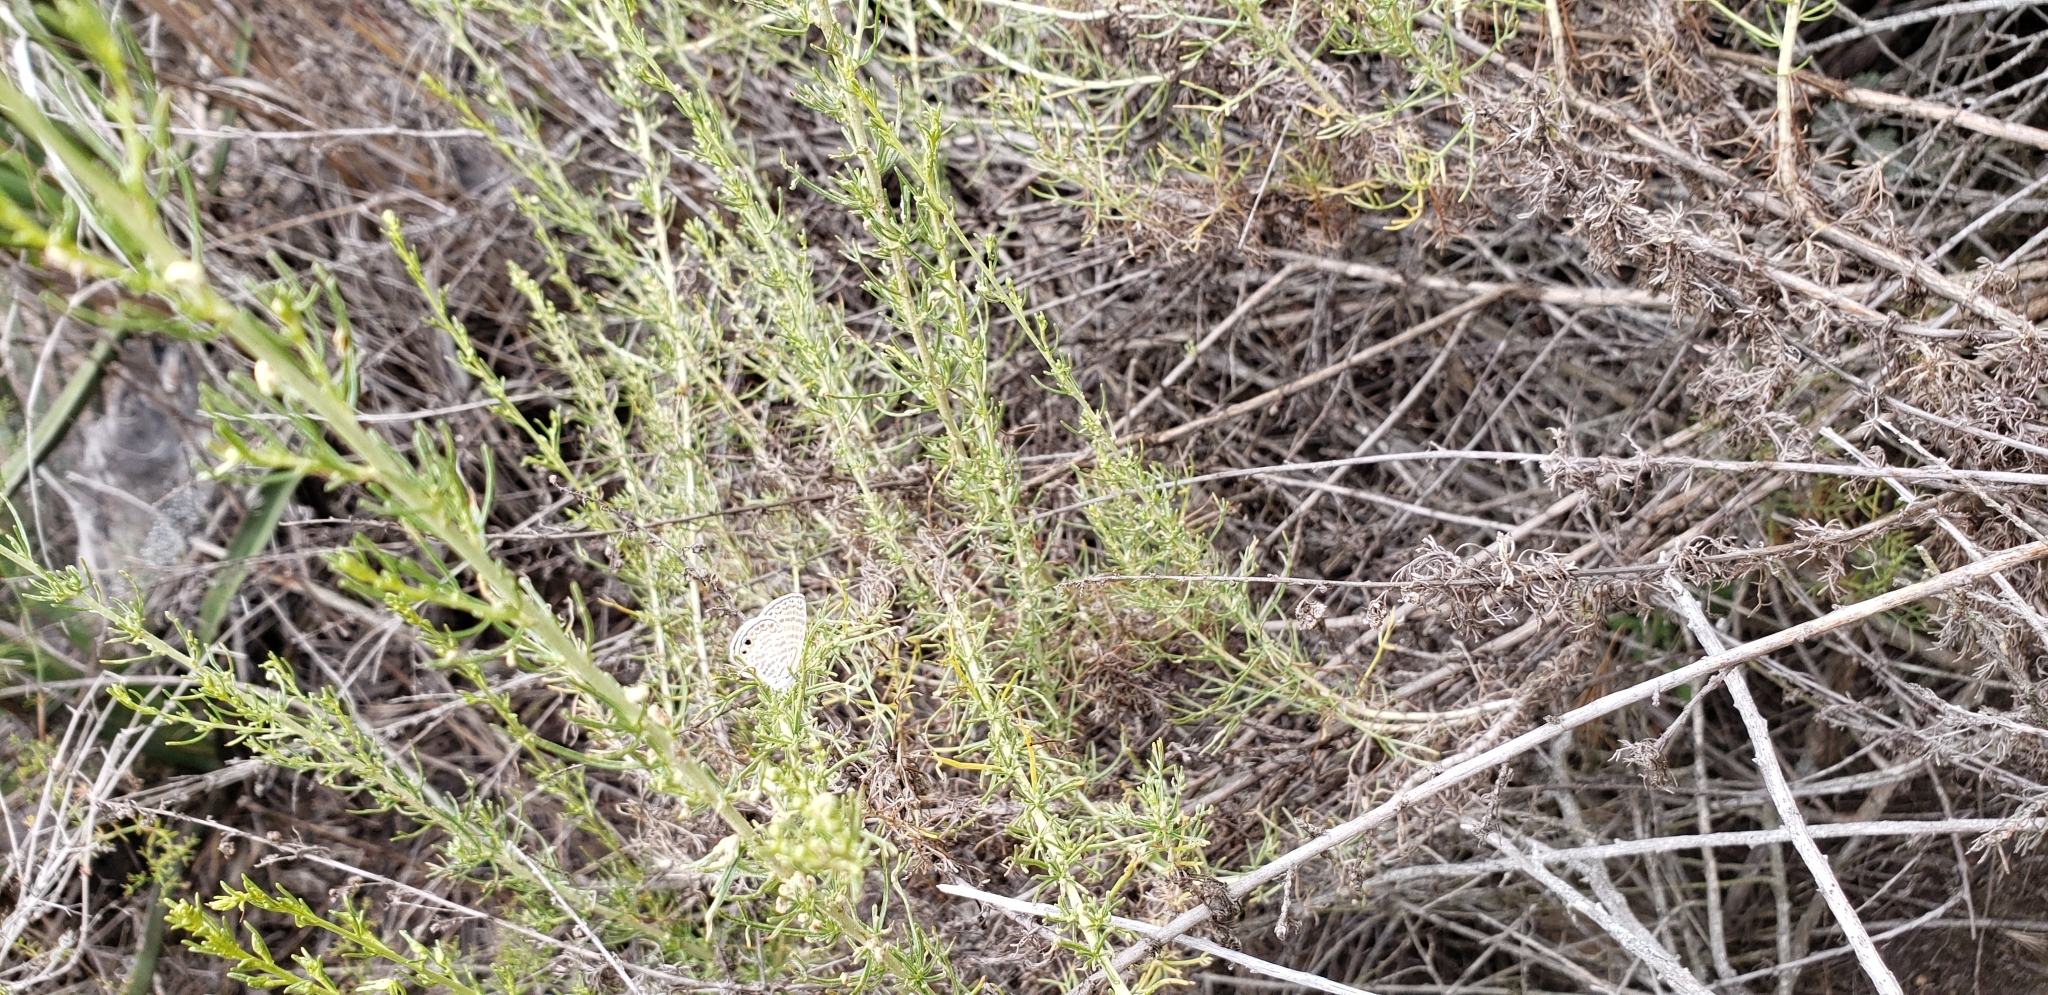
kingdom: Animalia
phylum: Arthropoda
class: Insecta
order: Lepidoptera
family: Lycaenidae
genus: Leptotes
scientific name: Leptotes marina
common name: Marine blue
